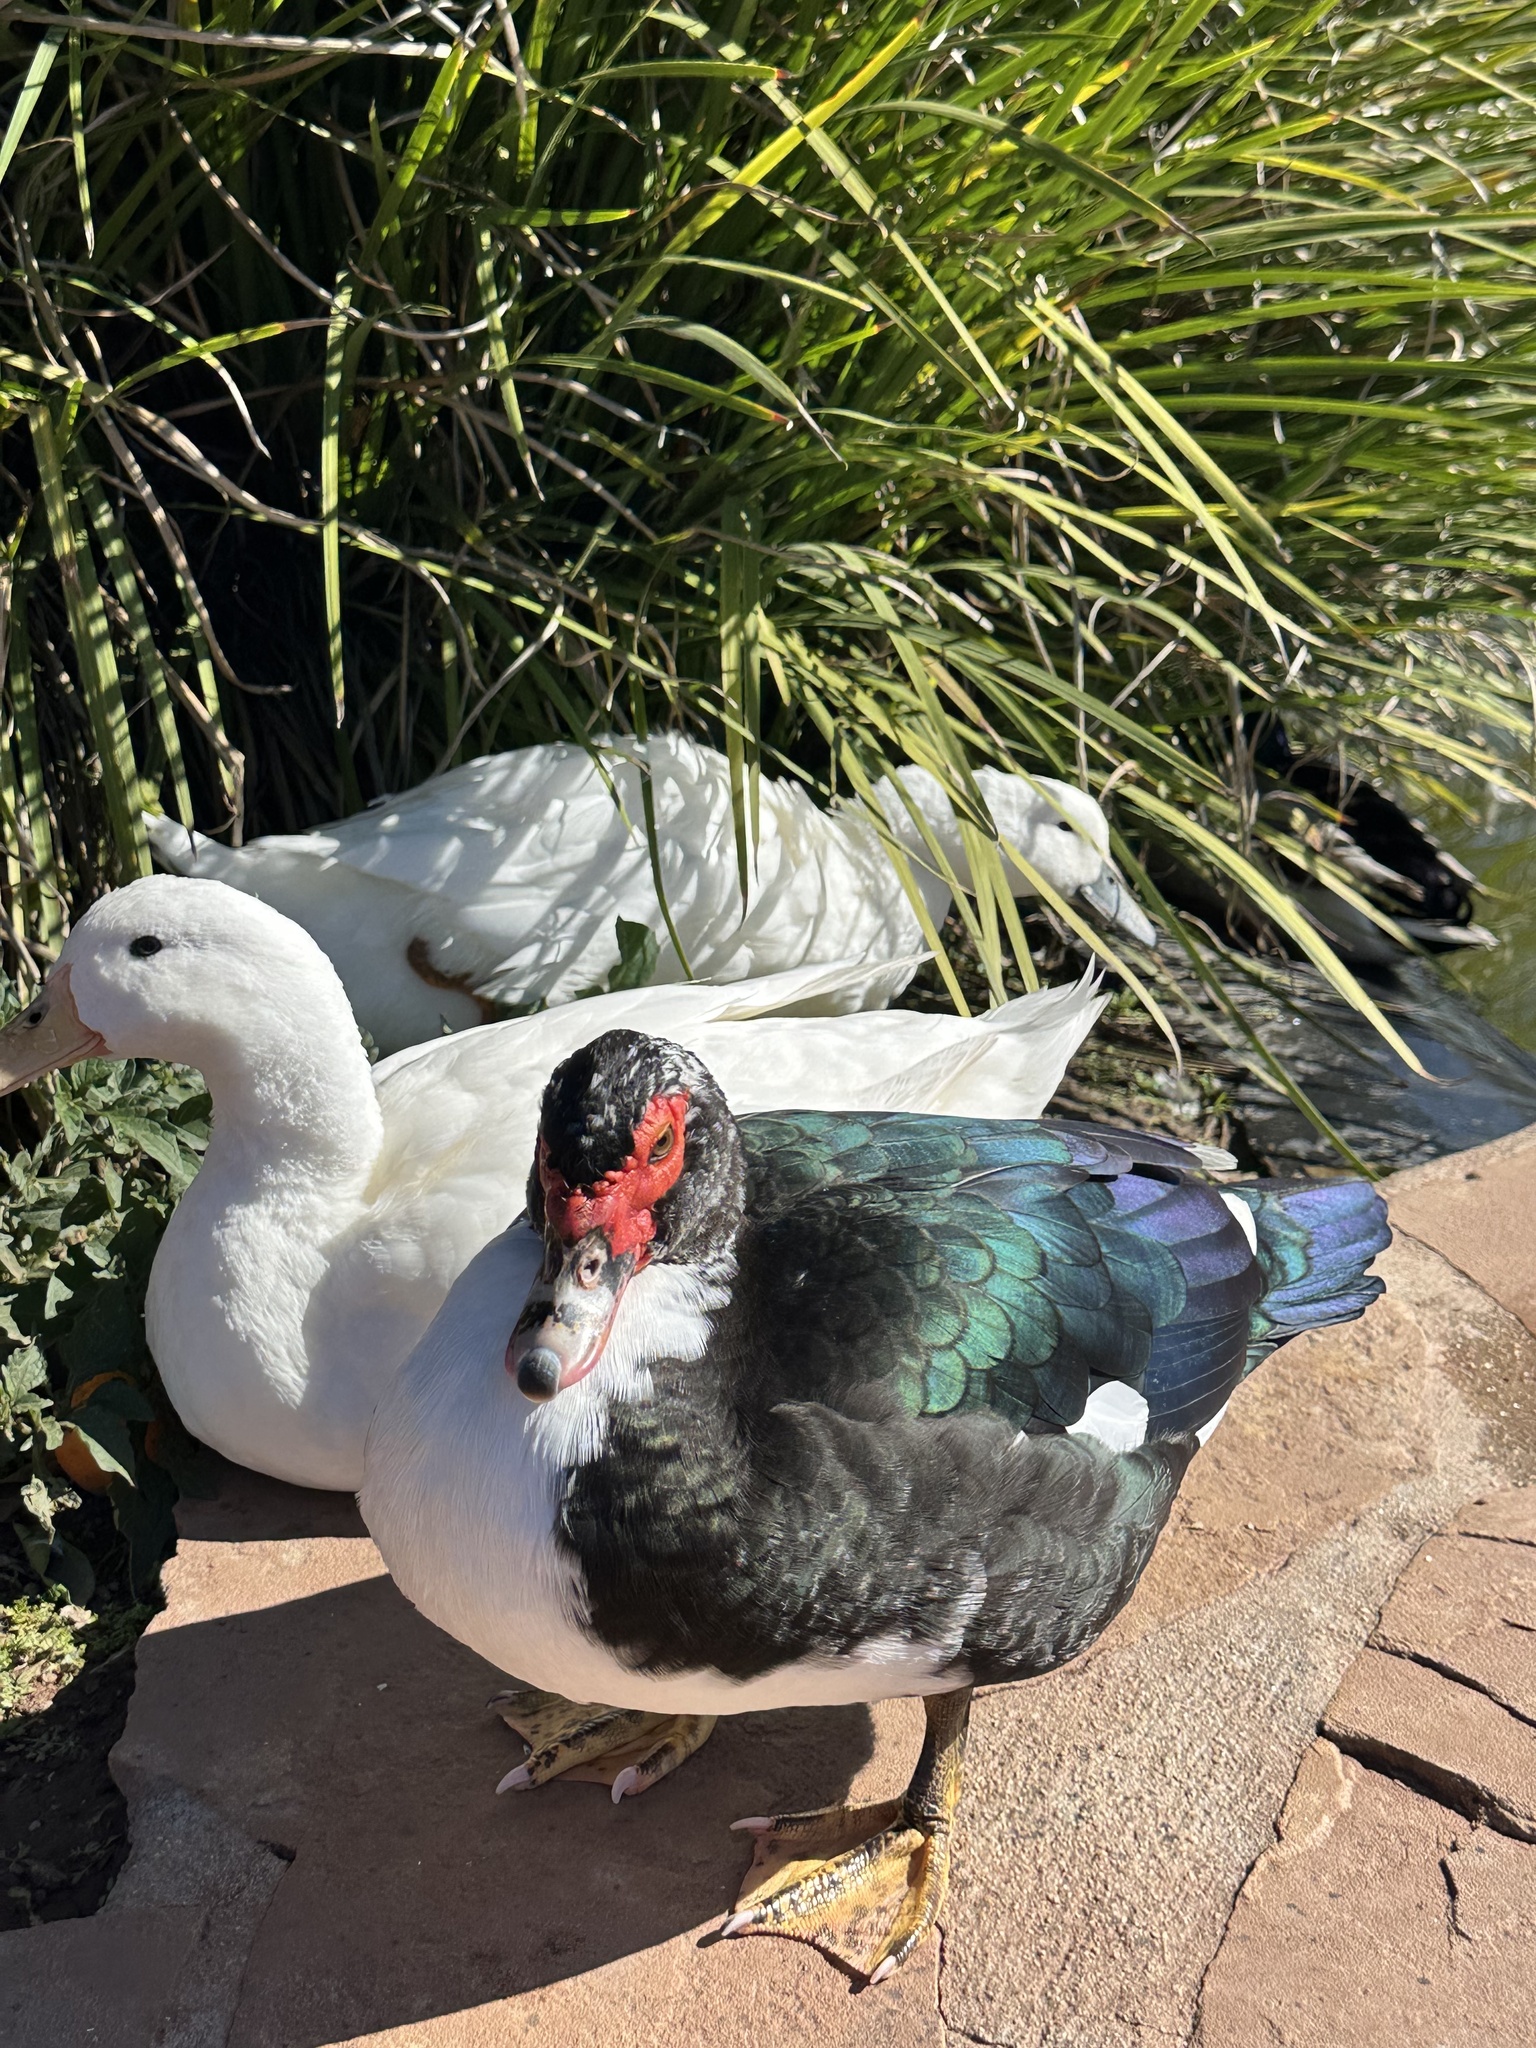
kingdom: Animalia
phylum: Chordata
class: Aves
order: Anseriformes
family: Anatidae
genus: Cairina
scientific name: Cairina moschata
